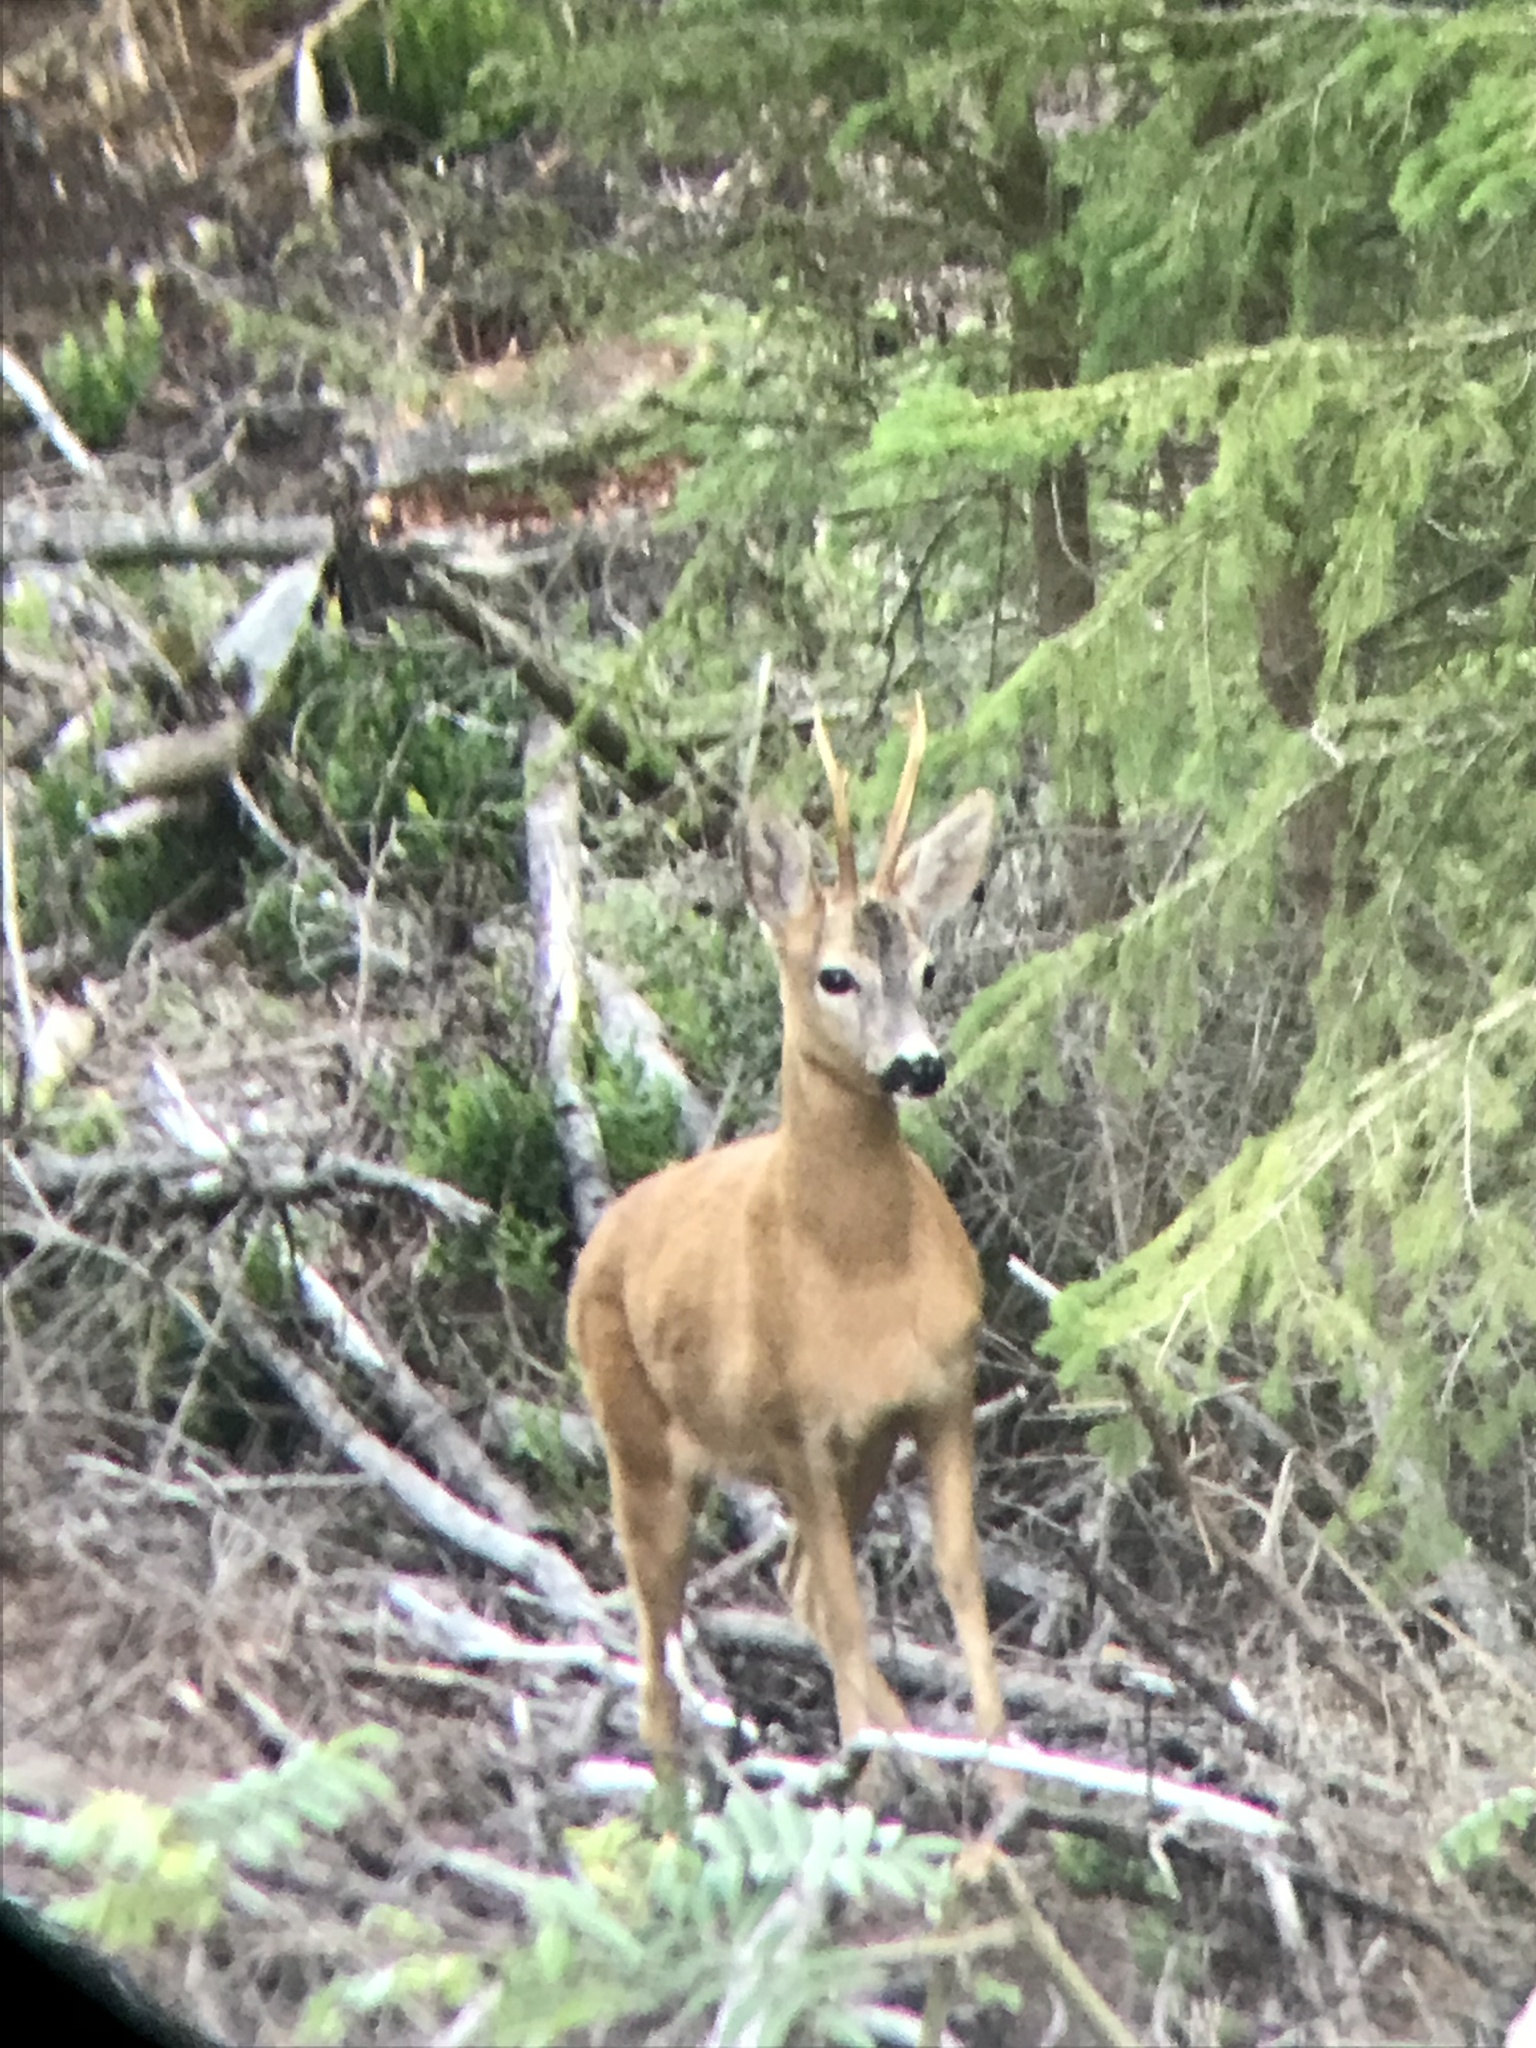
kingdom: Animalia
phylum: Chordata
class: Mammalia
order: Artiodactyla
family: Cervidae
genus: Capreolus
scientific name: Capreolus capreolus
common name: Western roe deer
